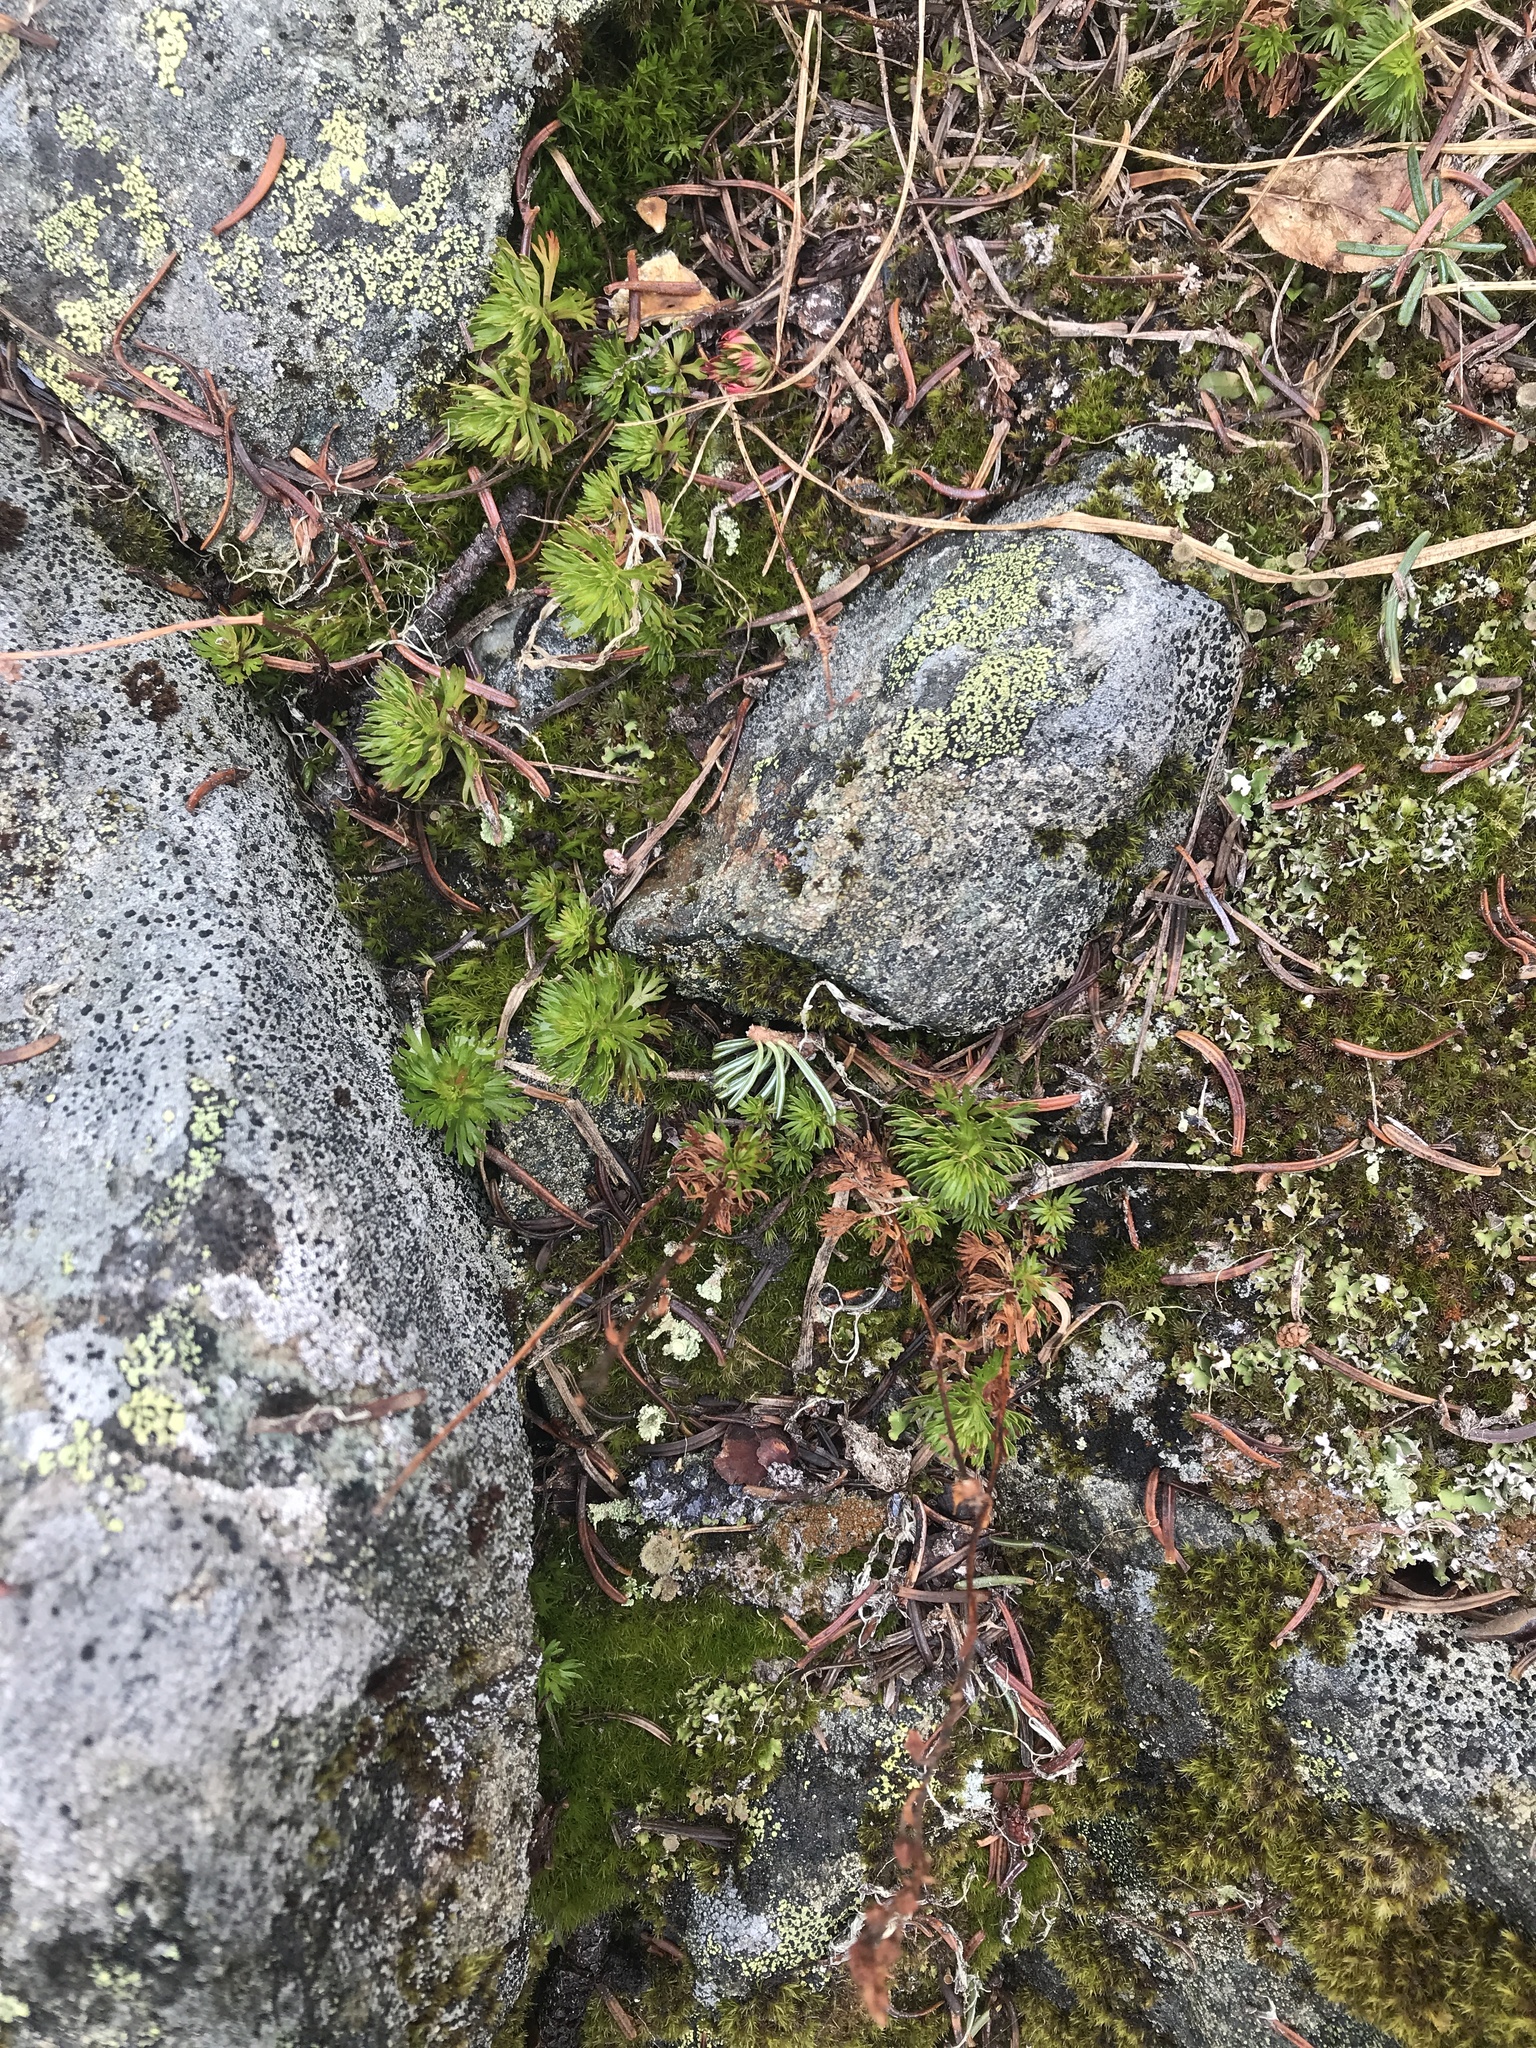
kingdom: Plantae
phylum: Tracheophyta
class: Magnoliopsida
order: Rosales
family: Rosaceae
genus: Luetkea
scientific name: Luetkea pectinata
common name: Partridgefoot
